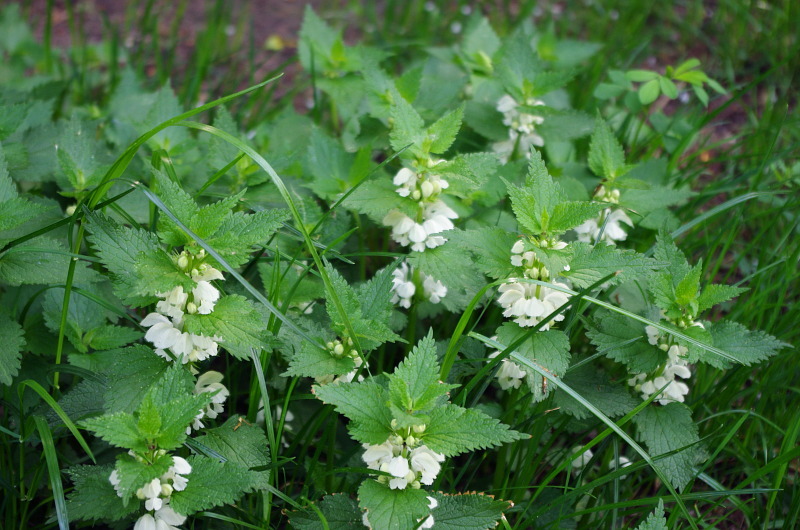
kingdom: Plantae
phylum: Tracheophyta
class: Magnoliopsida
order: Lamiales
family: Lamiaceae
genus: Lamium
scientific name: Lamium album
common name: White dead-nettle
